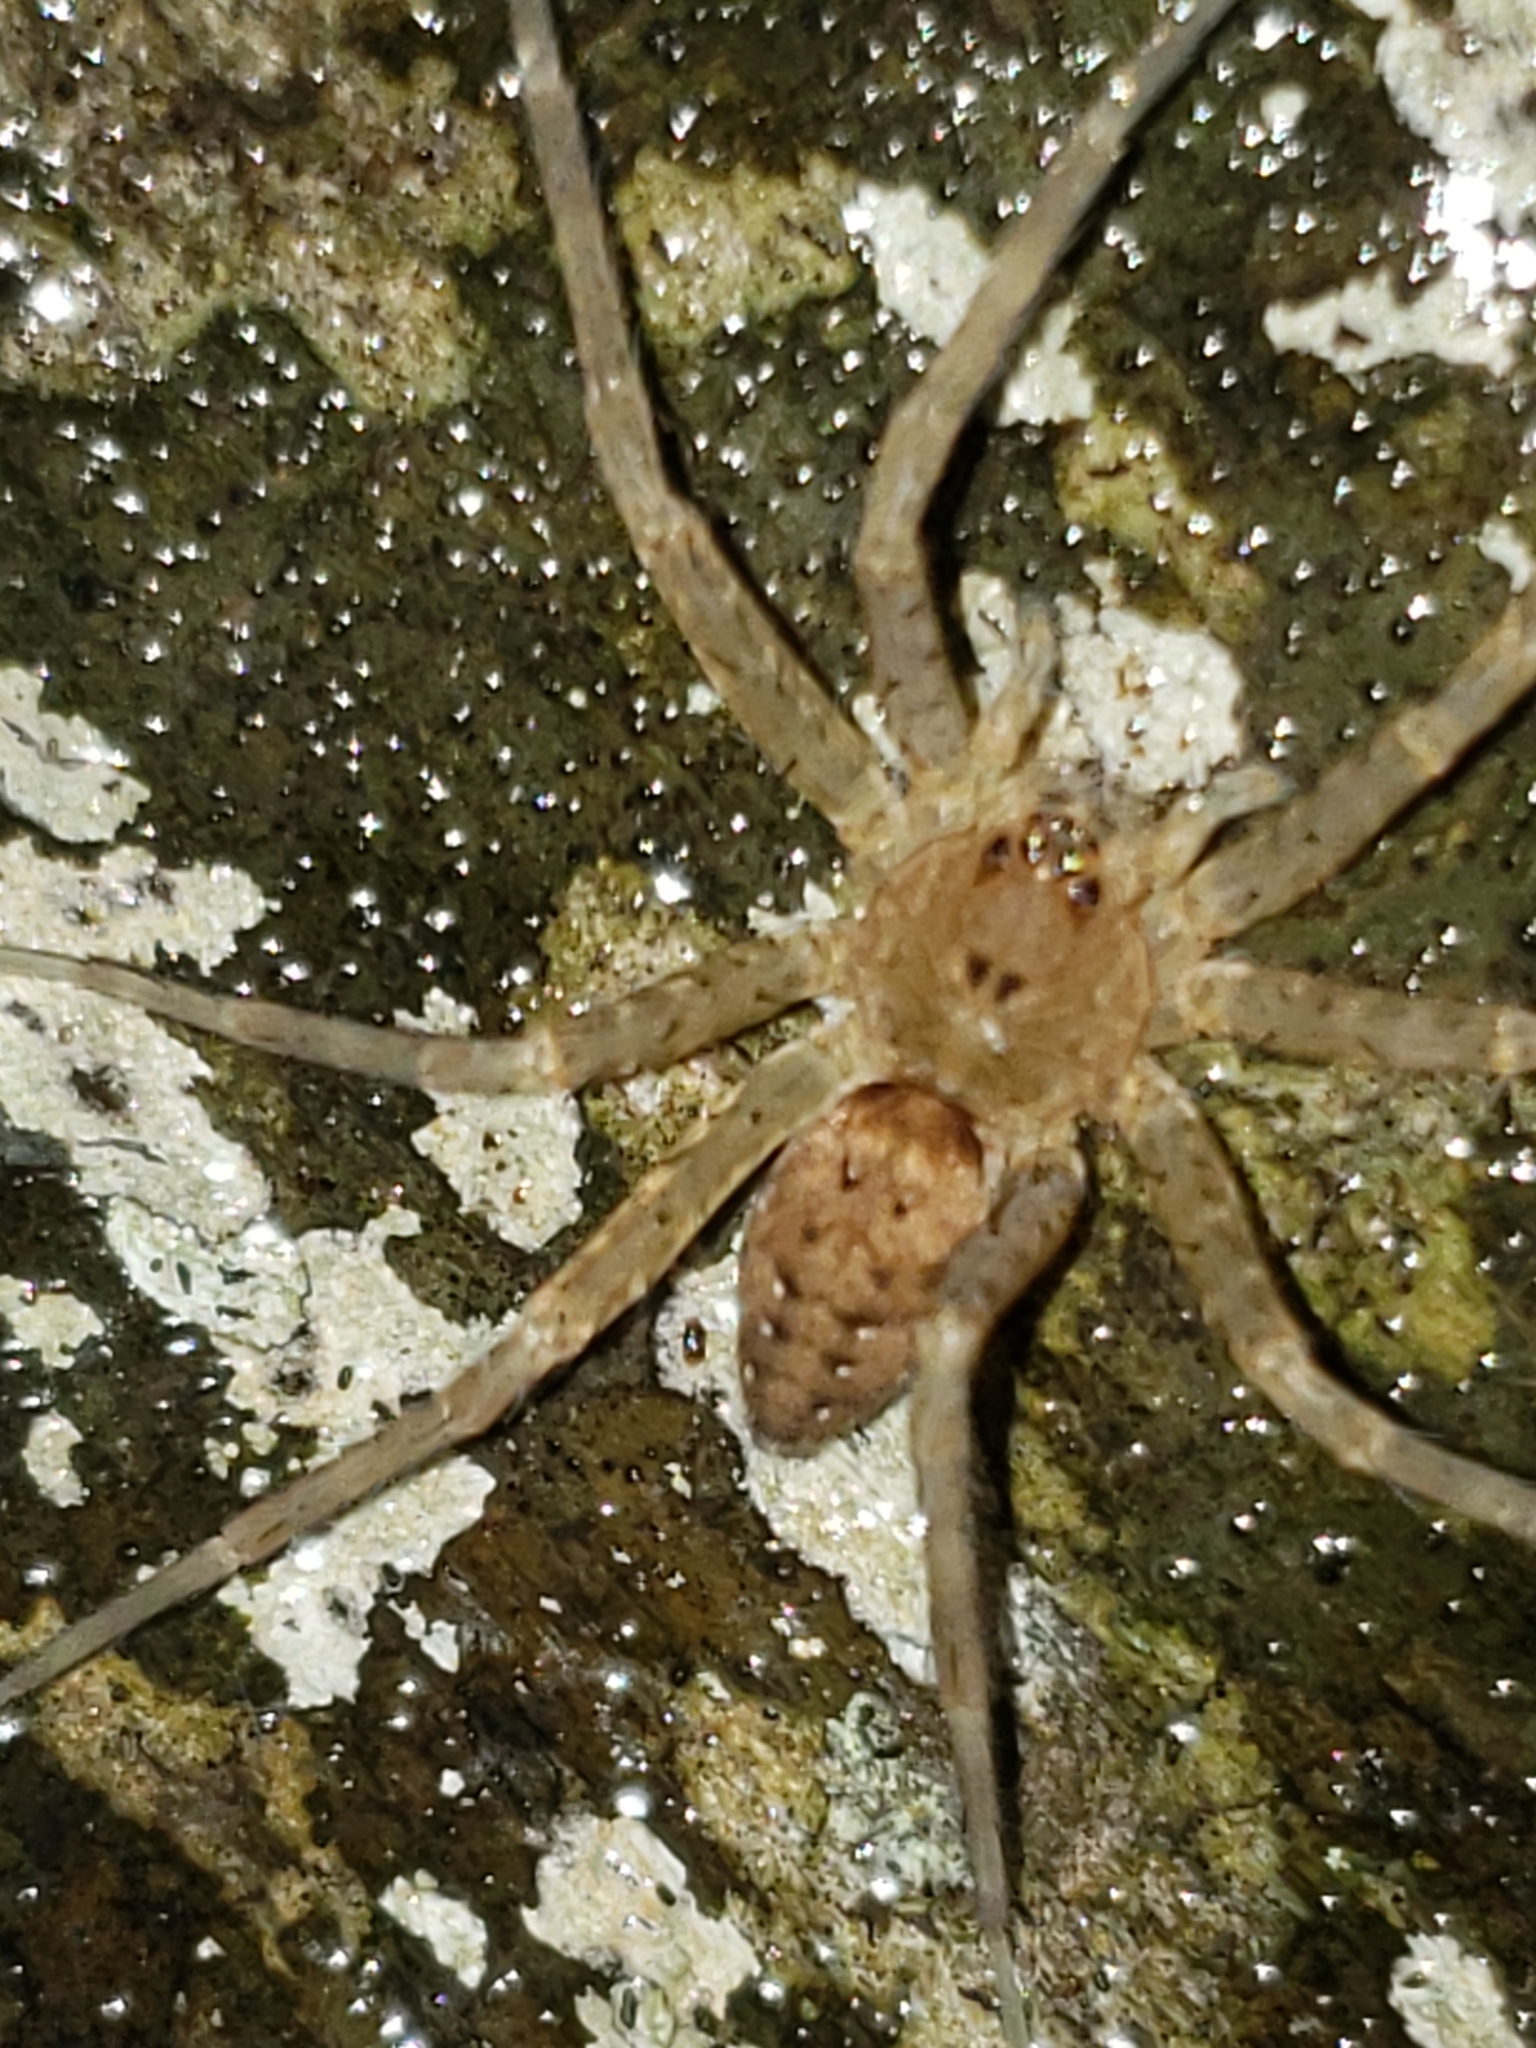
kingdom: Animalia
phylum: Arthropoda
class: Arachnida
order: Araneae
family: Pisauridae
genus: Dolomedes
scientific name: Dolomedes vittatus
